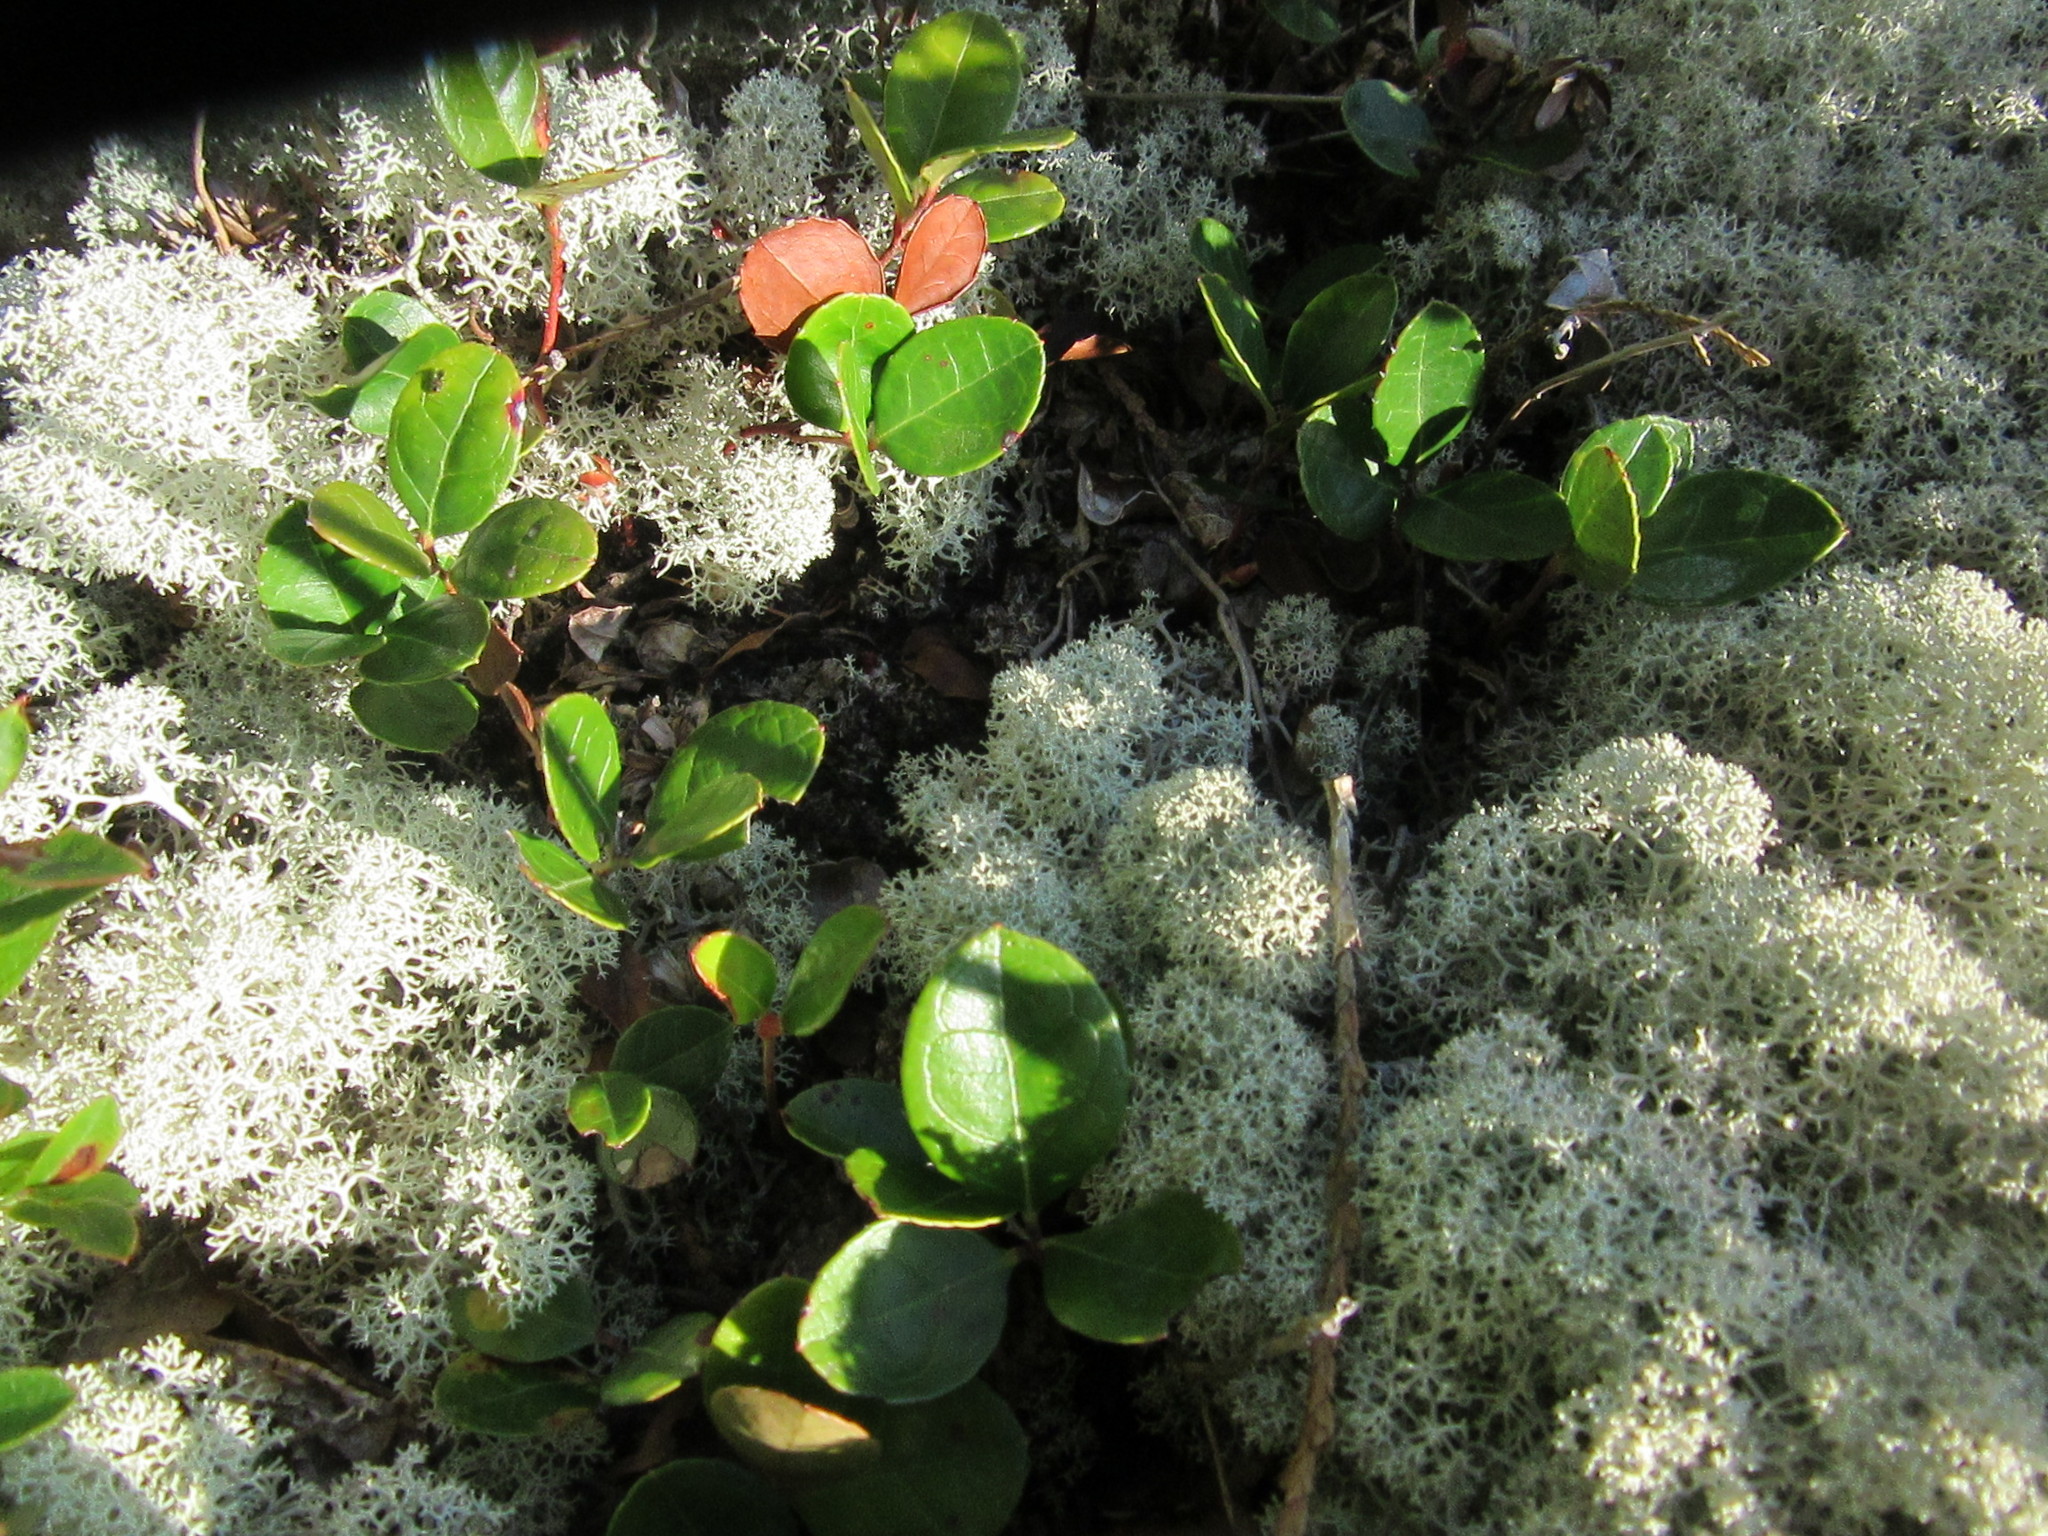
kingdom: Plantae
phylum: Tracheophyta
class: Magnoliopsida
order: Ericales
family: Ericaceae
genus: Gaultheria
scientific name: Gaultheria procumbens
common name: Checkerberry
